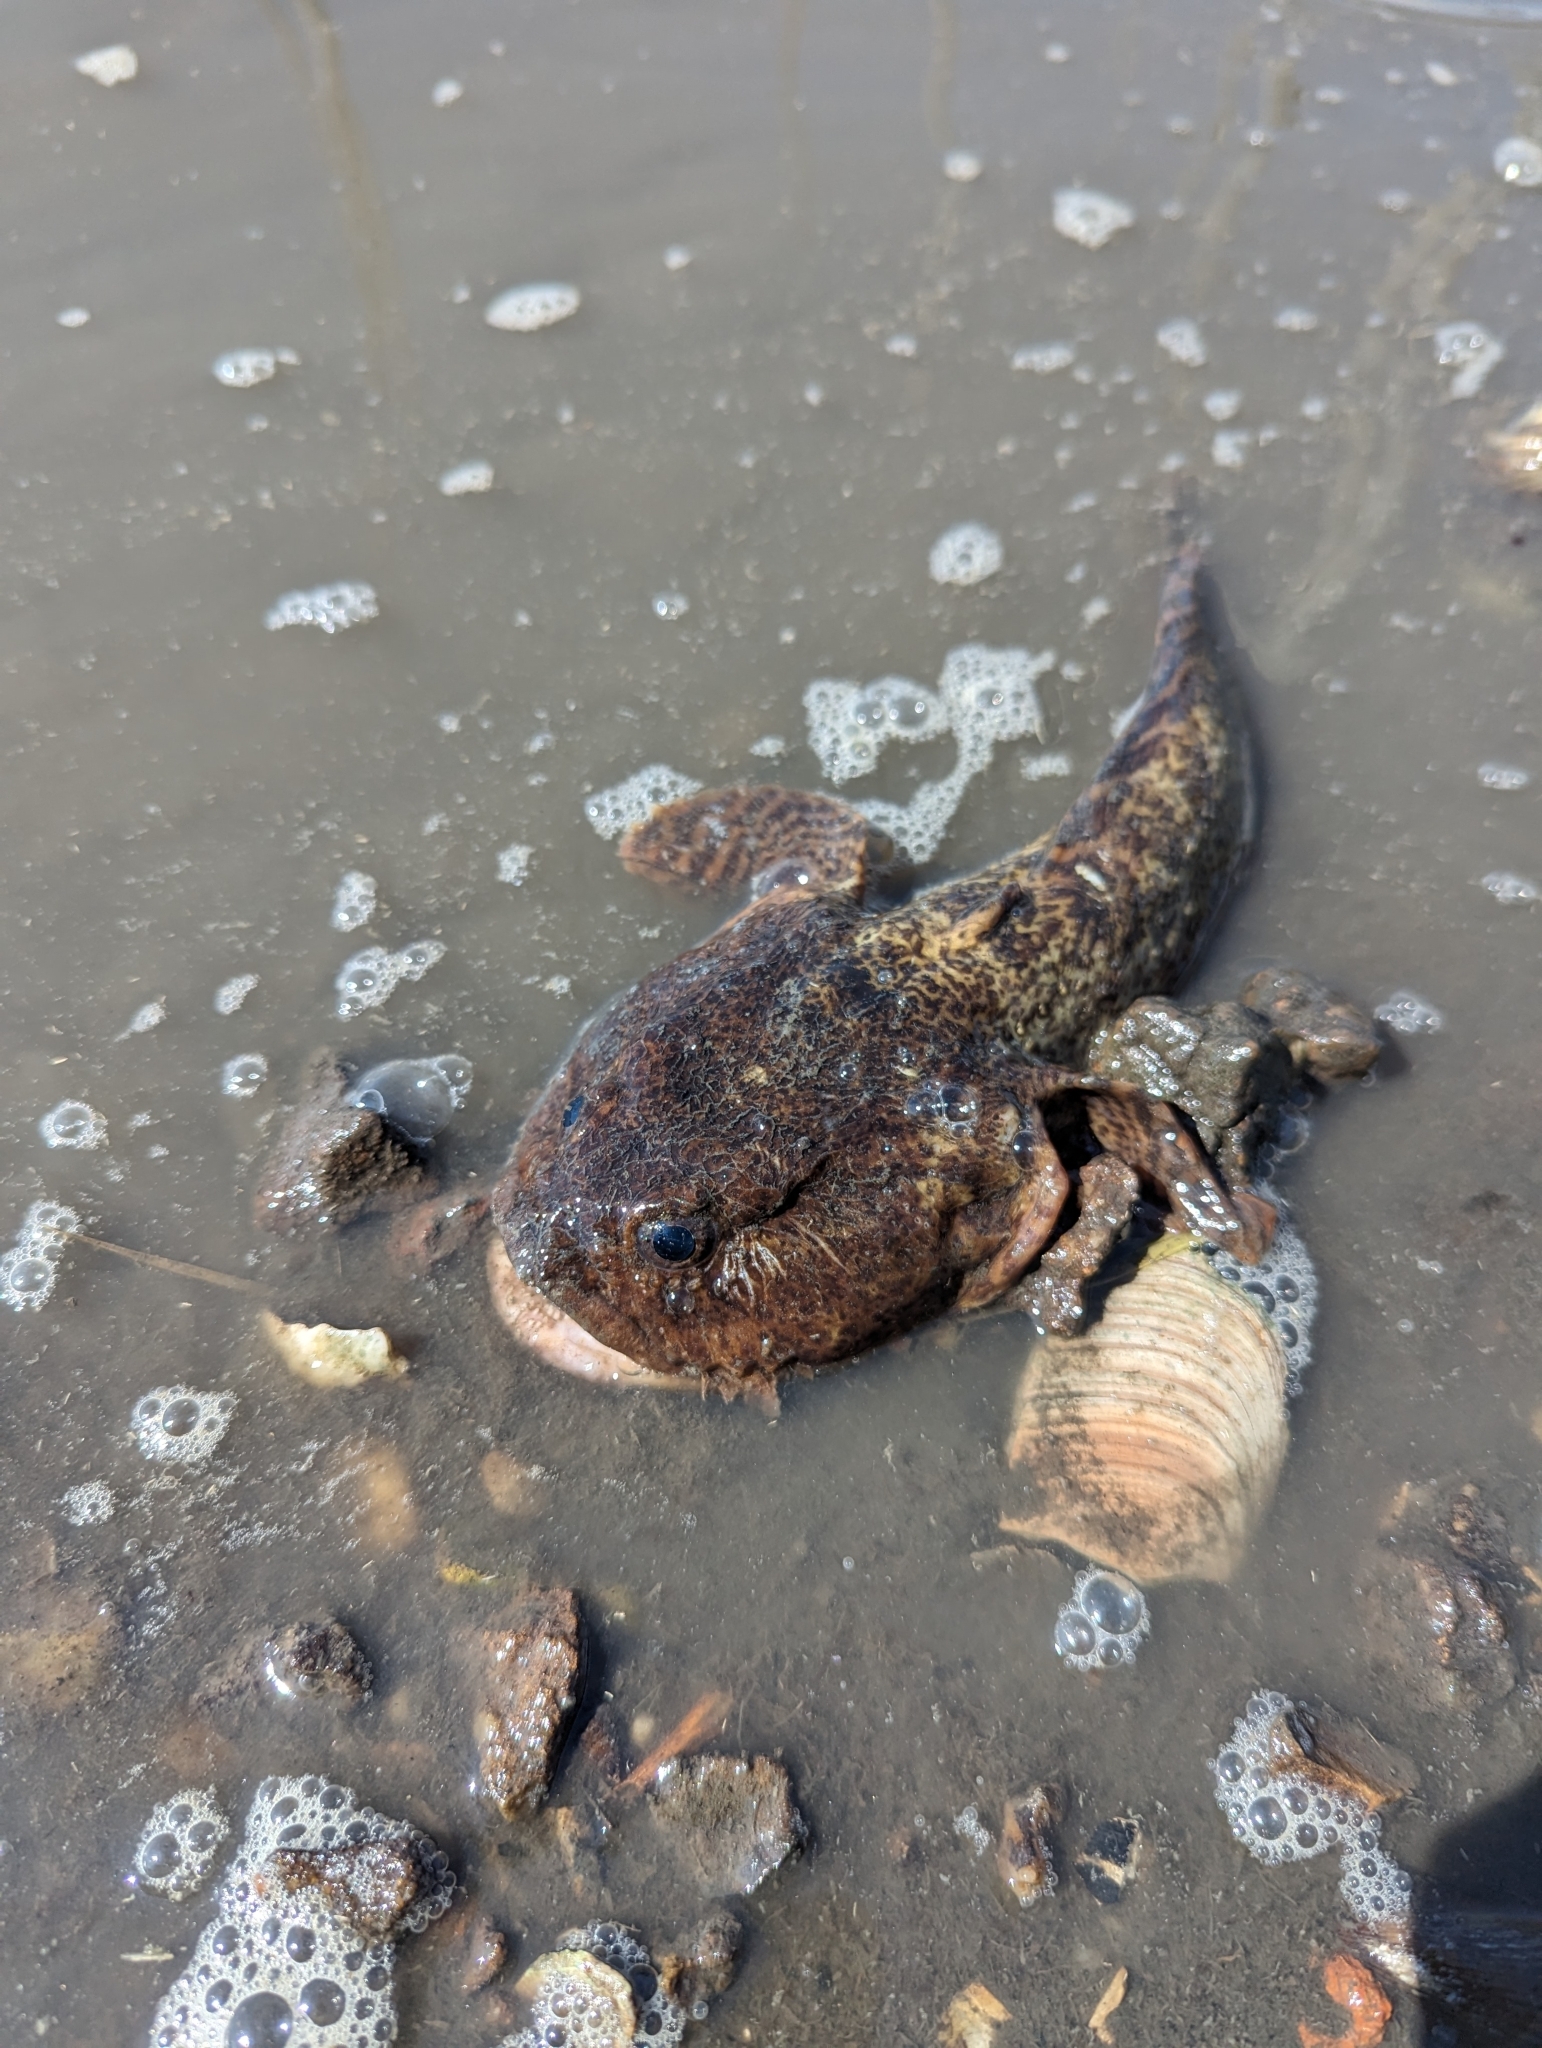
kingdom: Animalia
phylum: Chordata
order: Batrachoidiformes
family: Batrachoididae
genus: Opsanus
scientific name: Opsanus tau
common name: Oyster toadfish
